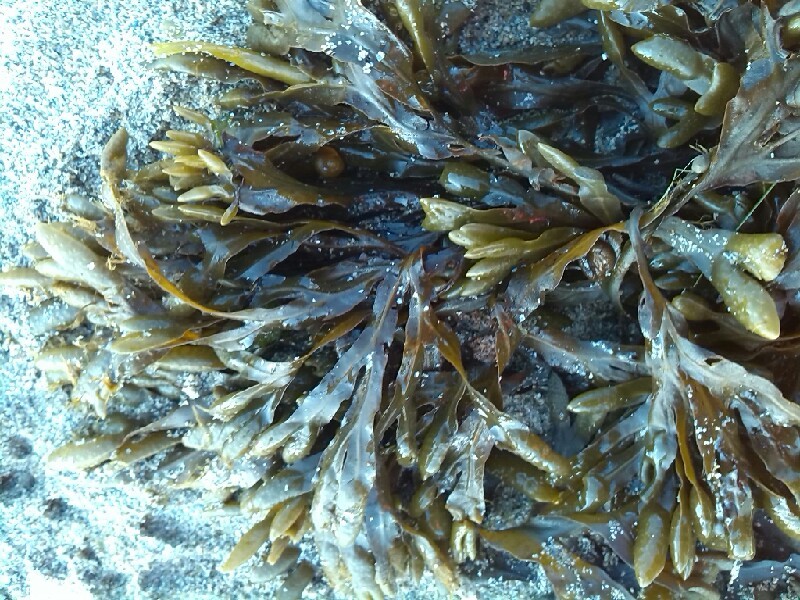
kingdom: Chromista
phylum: Ochrophyta
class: Phaeophyceae
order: Fucales
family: Fucaceae
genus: Fucus
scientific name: Fucus spiralis
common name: Spiral wrack
